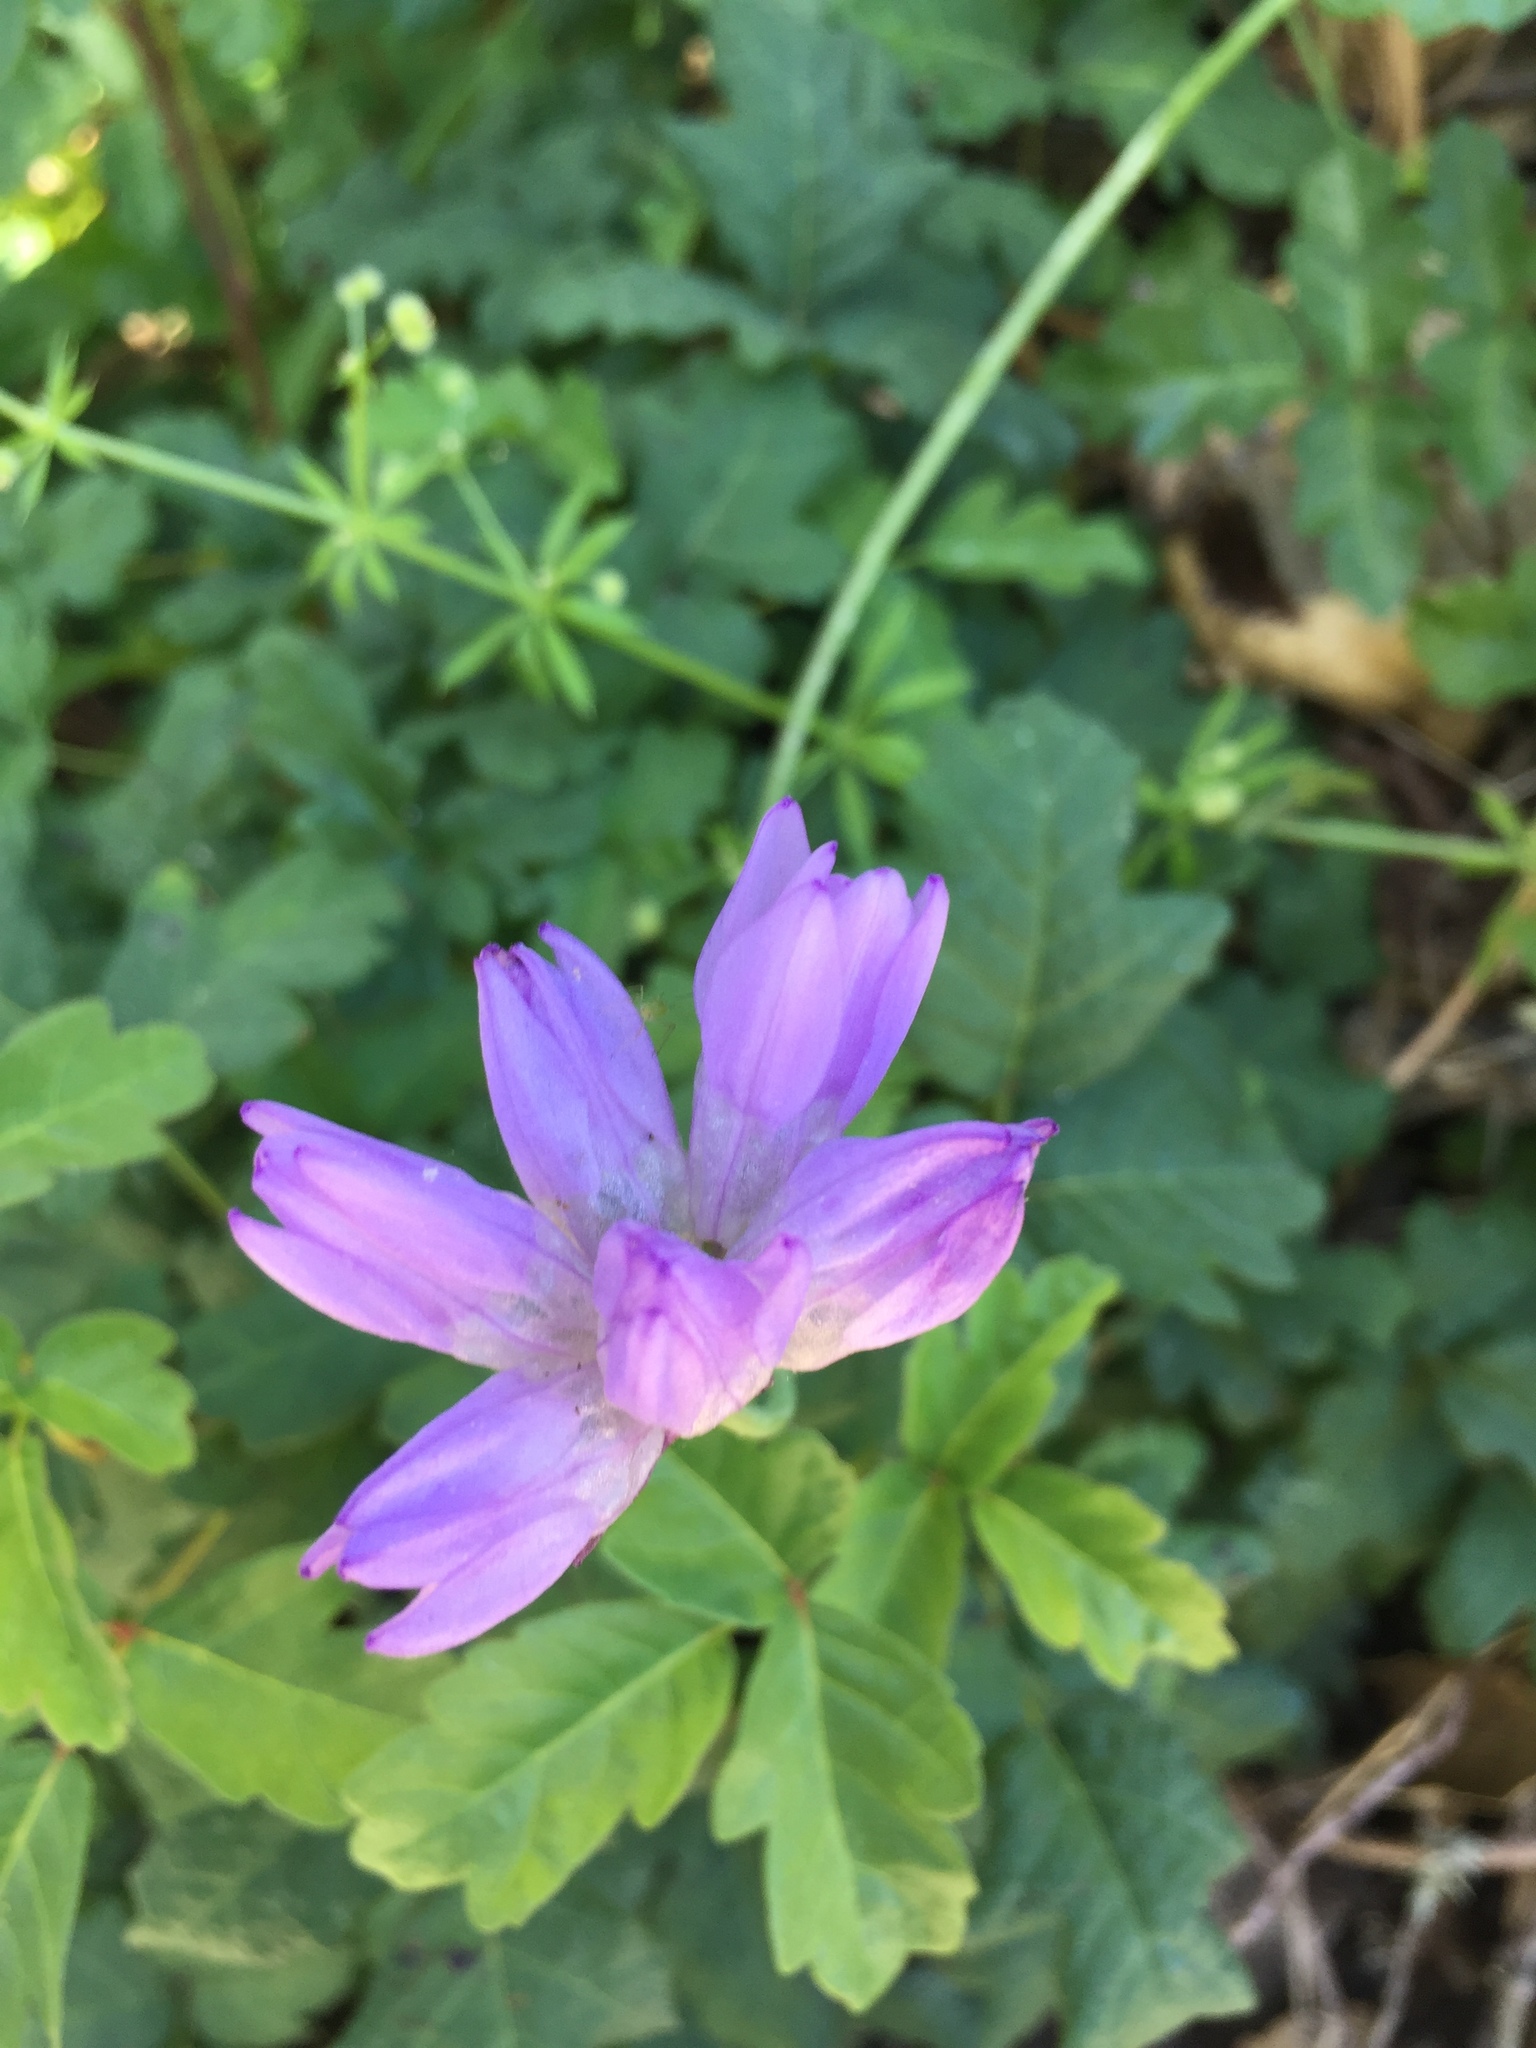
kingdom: Plantae
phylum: Tracheophyta
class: Liliopsida
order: Asparagales
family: Asparagaceae
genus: Dipterostemon
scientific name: Dipterostemon capitatus
